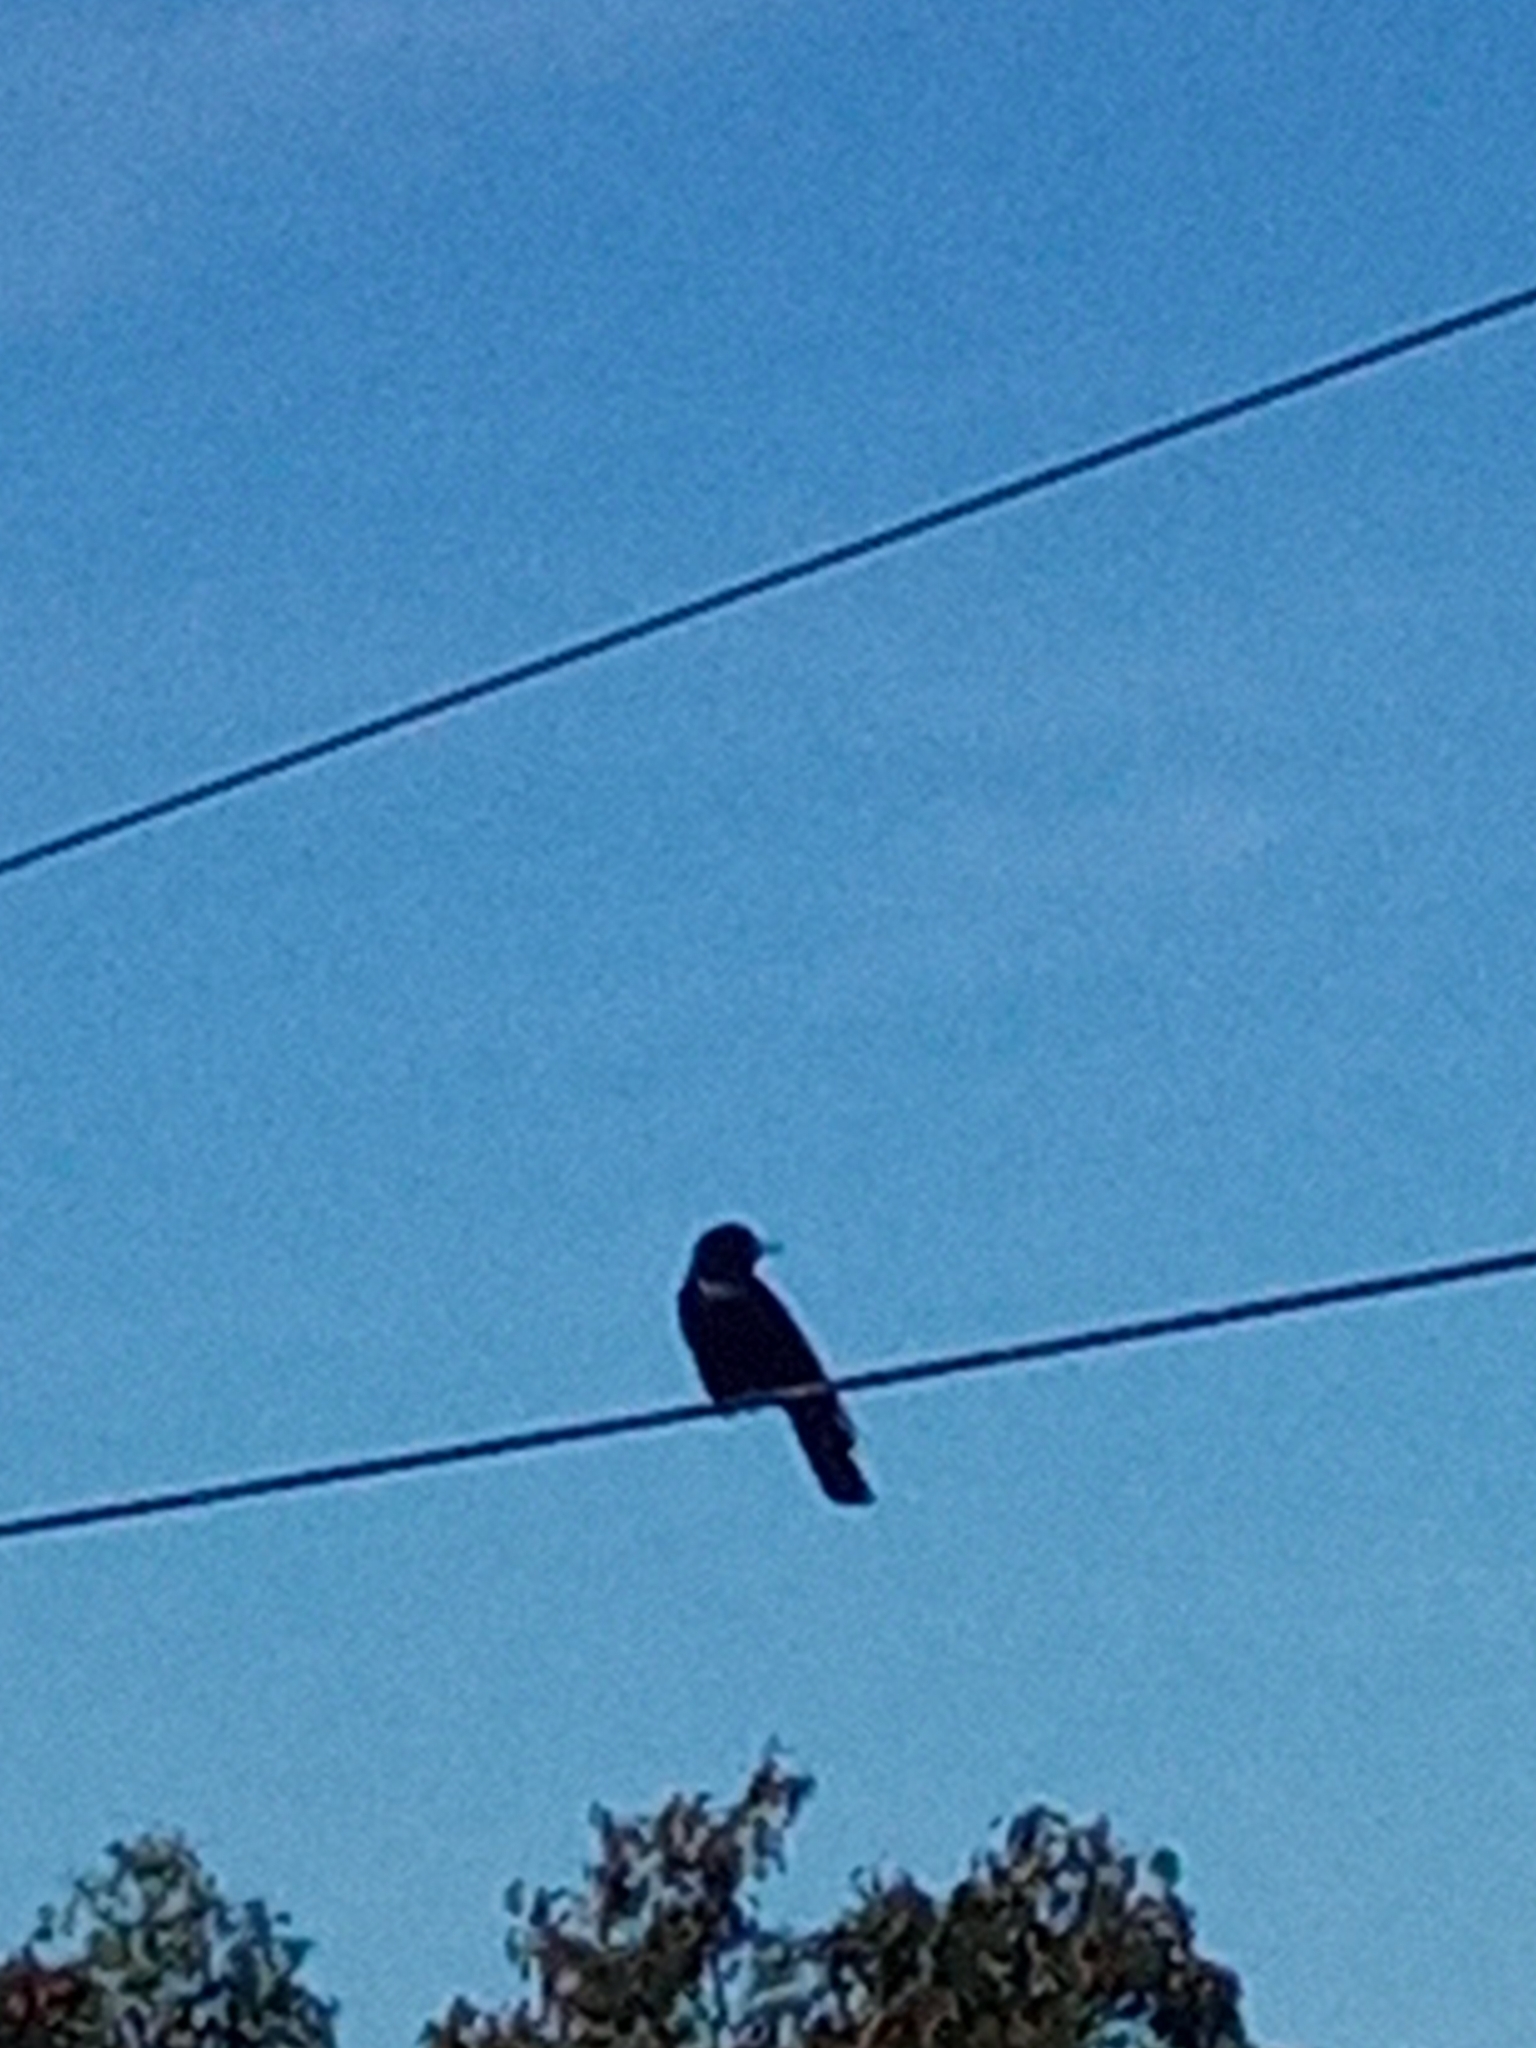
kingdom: Animalia
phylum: Chordata
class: Aves
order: Passeriformes
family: Corvidae
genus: Corvus
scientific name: Corvus sinaloae
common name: Sinaloa crow
